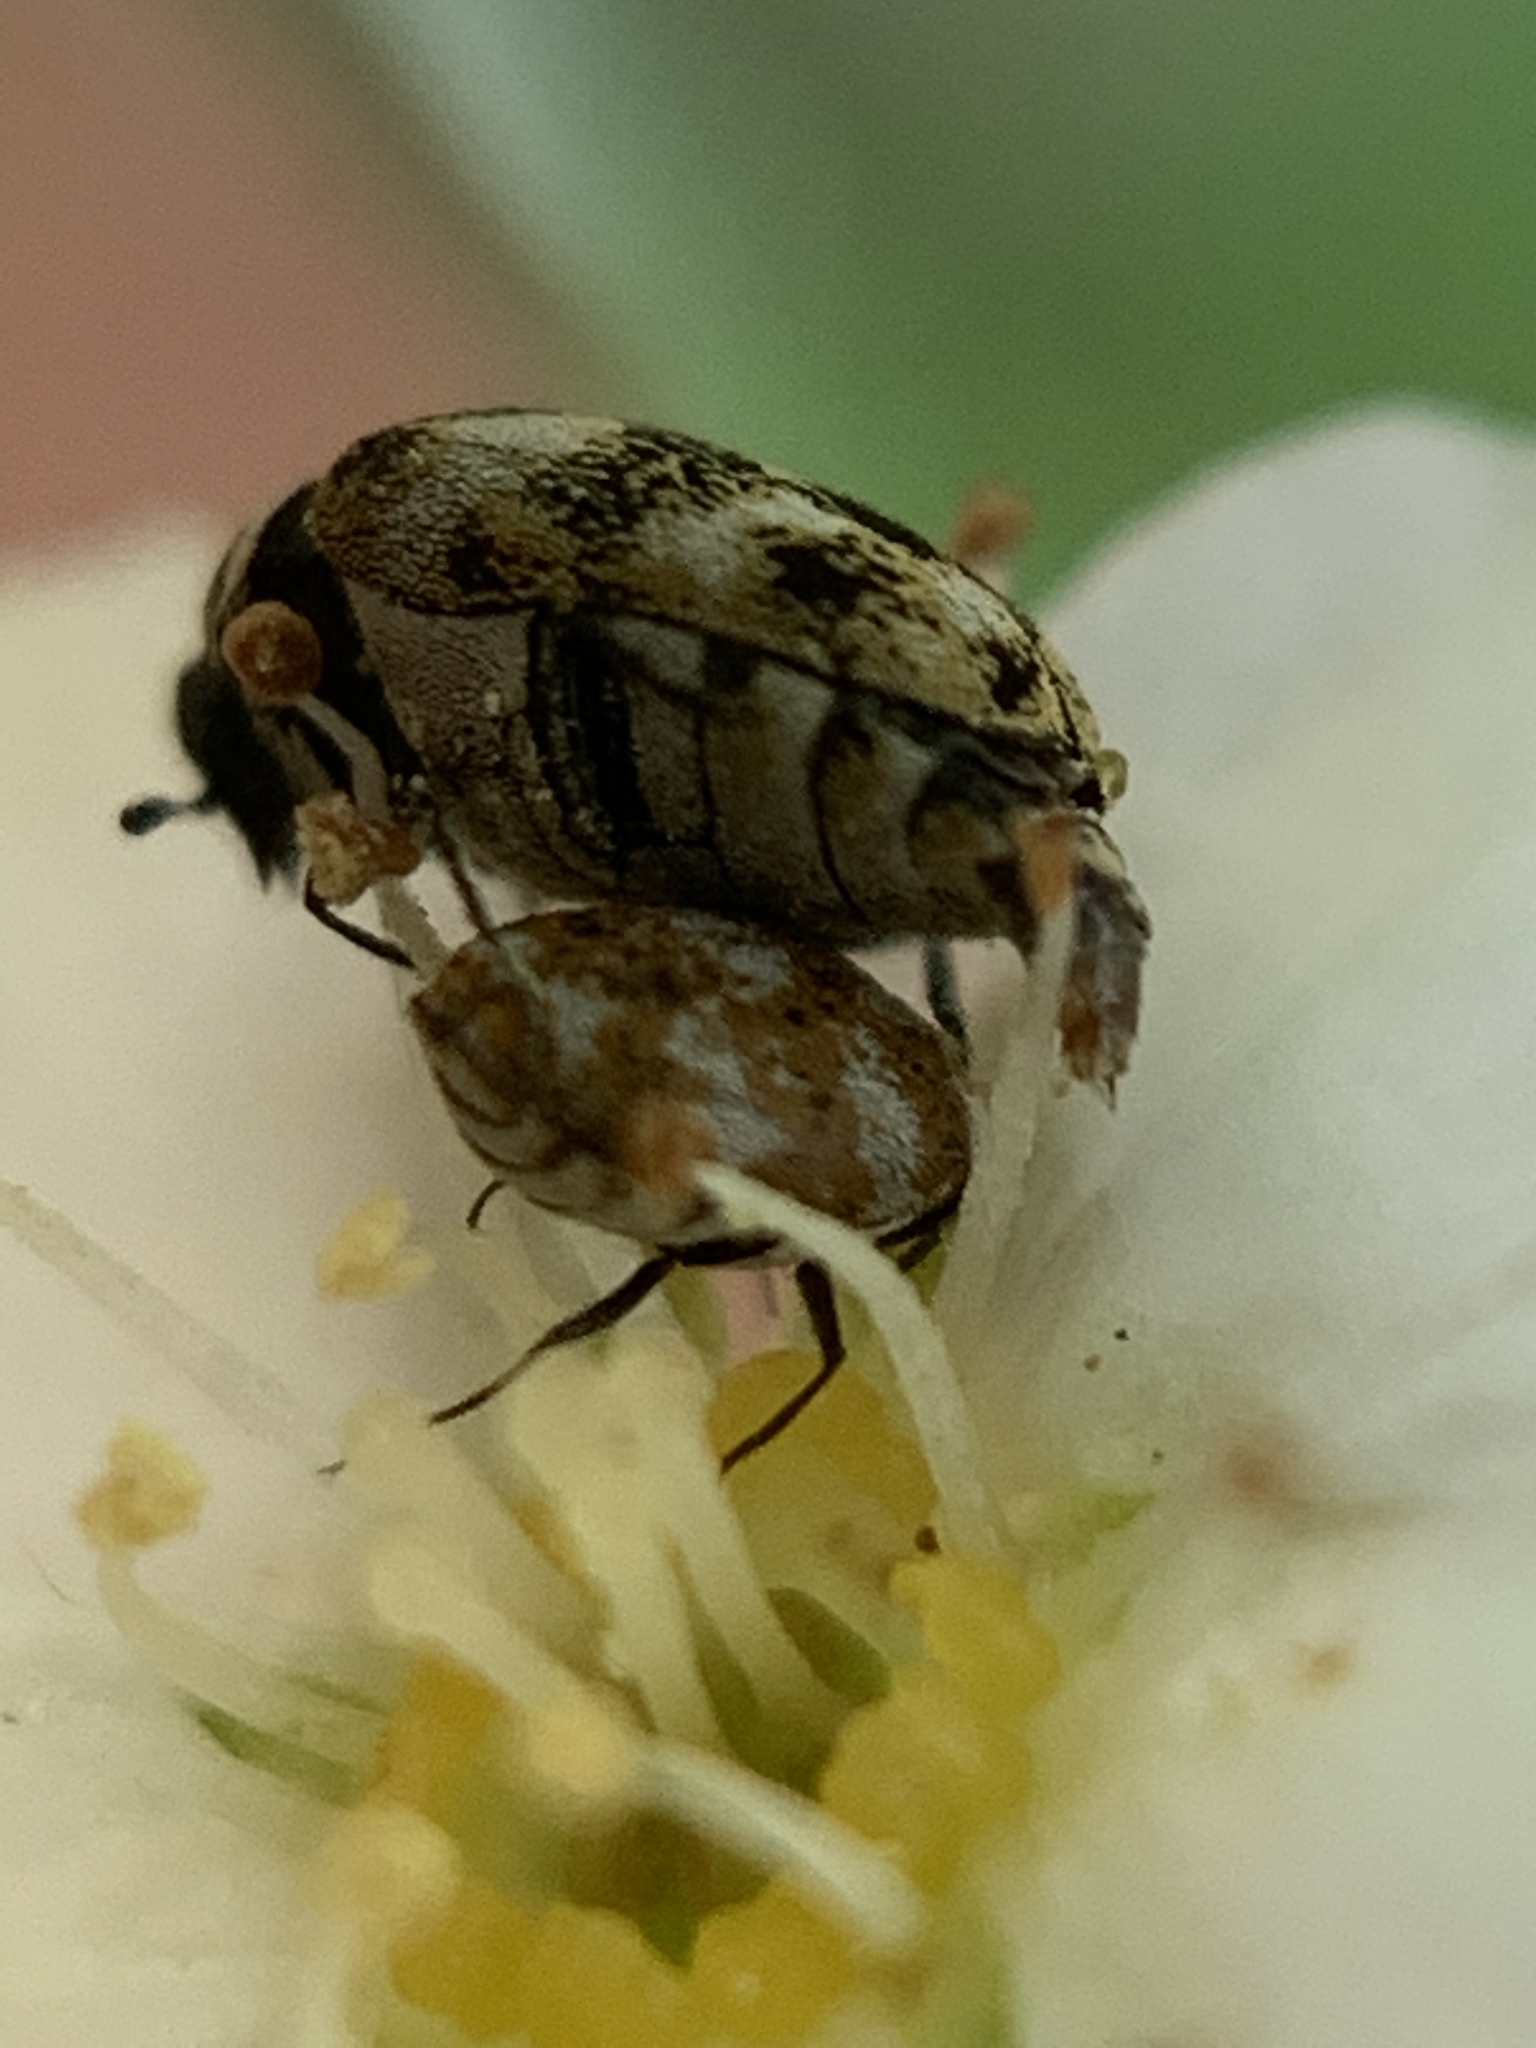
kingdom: Animalia
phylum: Arthropoda
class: Insecta
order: Coleoptera
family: Dermestidae
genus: Anthrenus
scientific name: Anthrenus verbasci
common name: Varied carpet beetle
